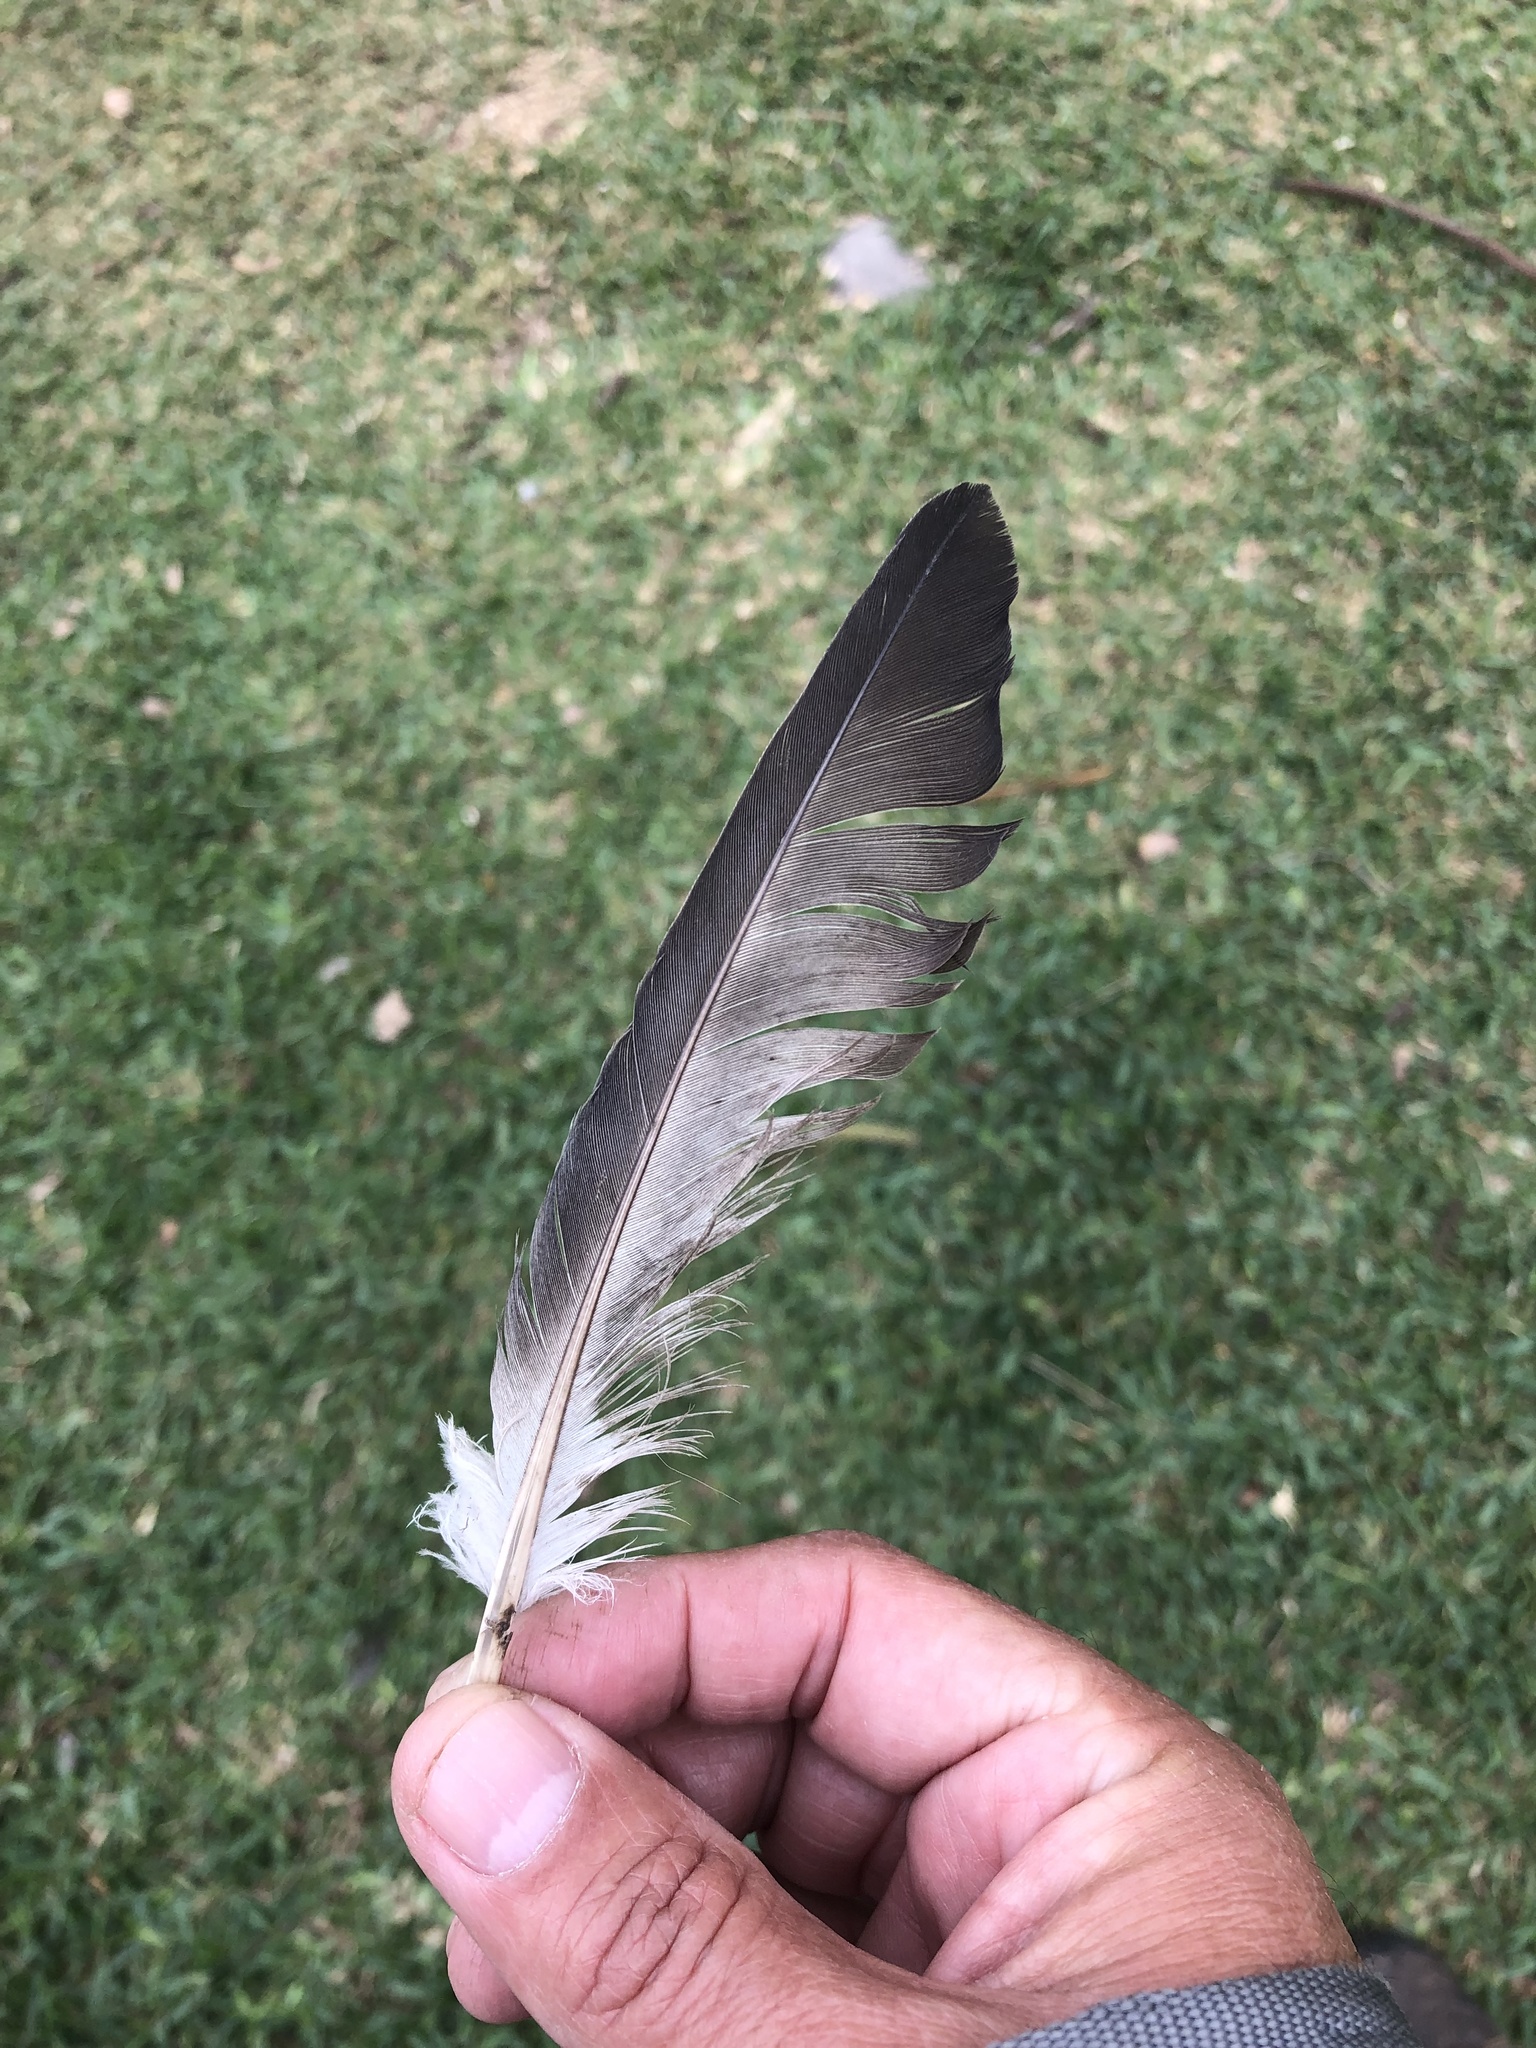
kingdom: Animalia
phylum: Chordata
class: Aves
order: Columbiformes
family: Columbidae
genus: Columba
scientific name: Columba livia
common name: Rock pigeon
